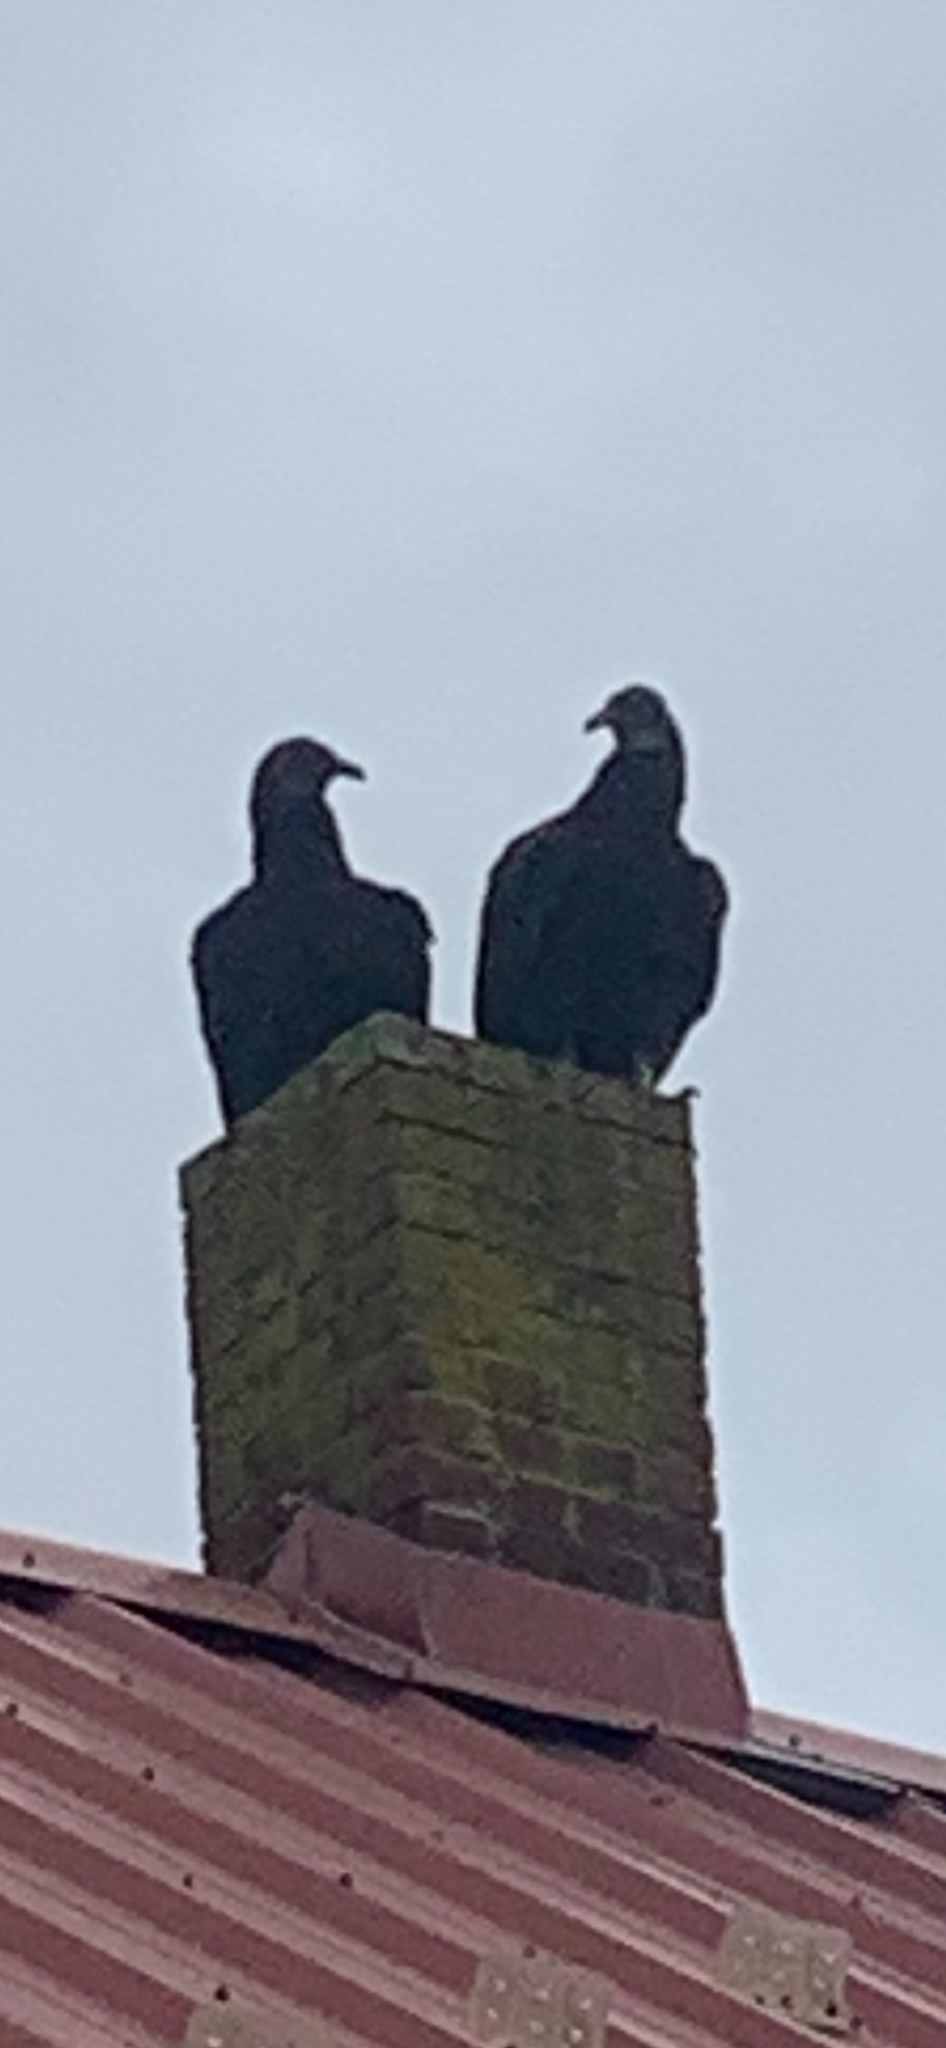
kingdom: Animalia
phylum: Chordata
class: Aves
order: Accipitriformes
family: Cathartidae
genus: Coragyps
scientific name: Coragyps atratus
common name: Black vulture
